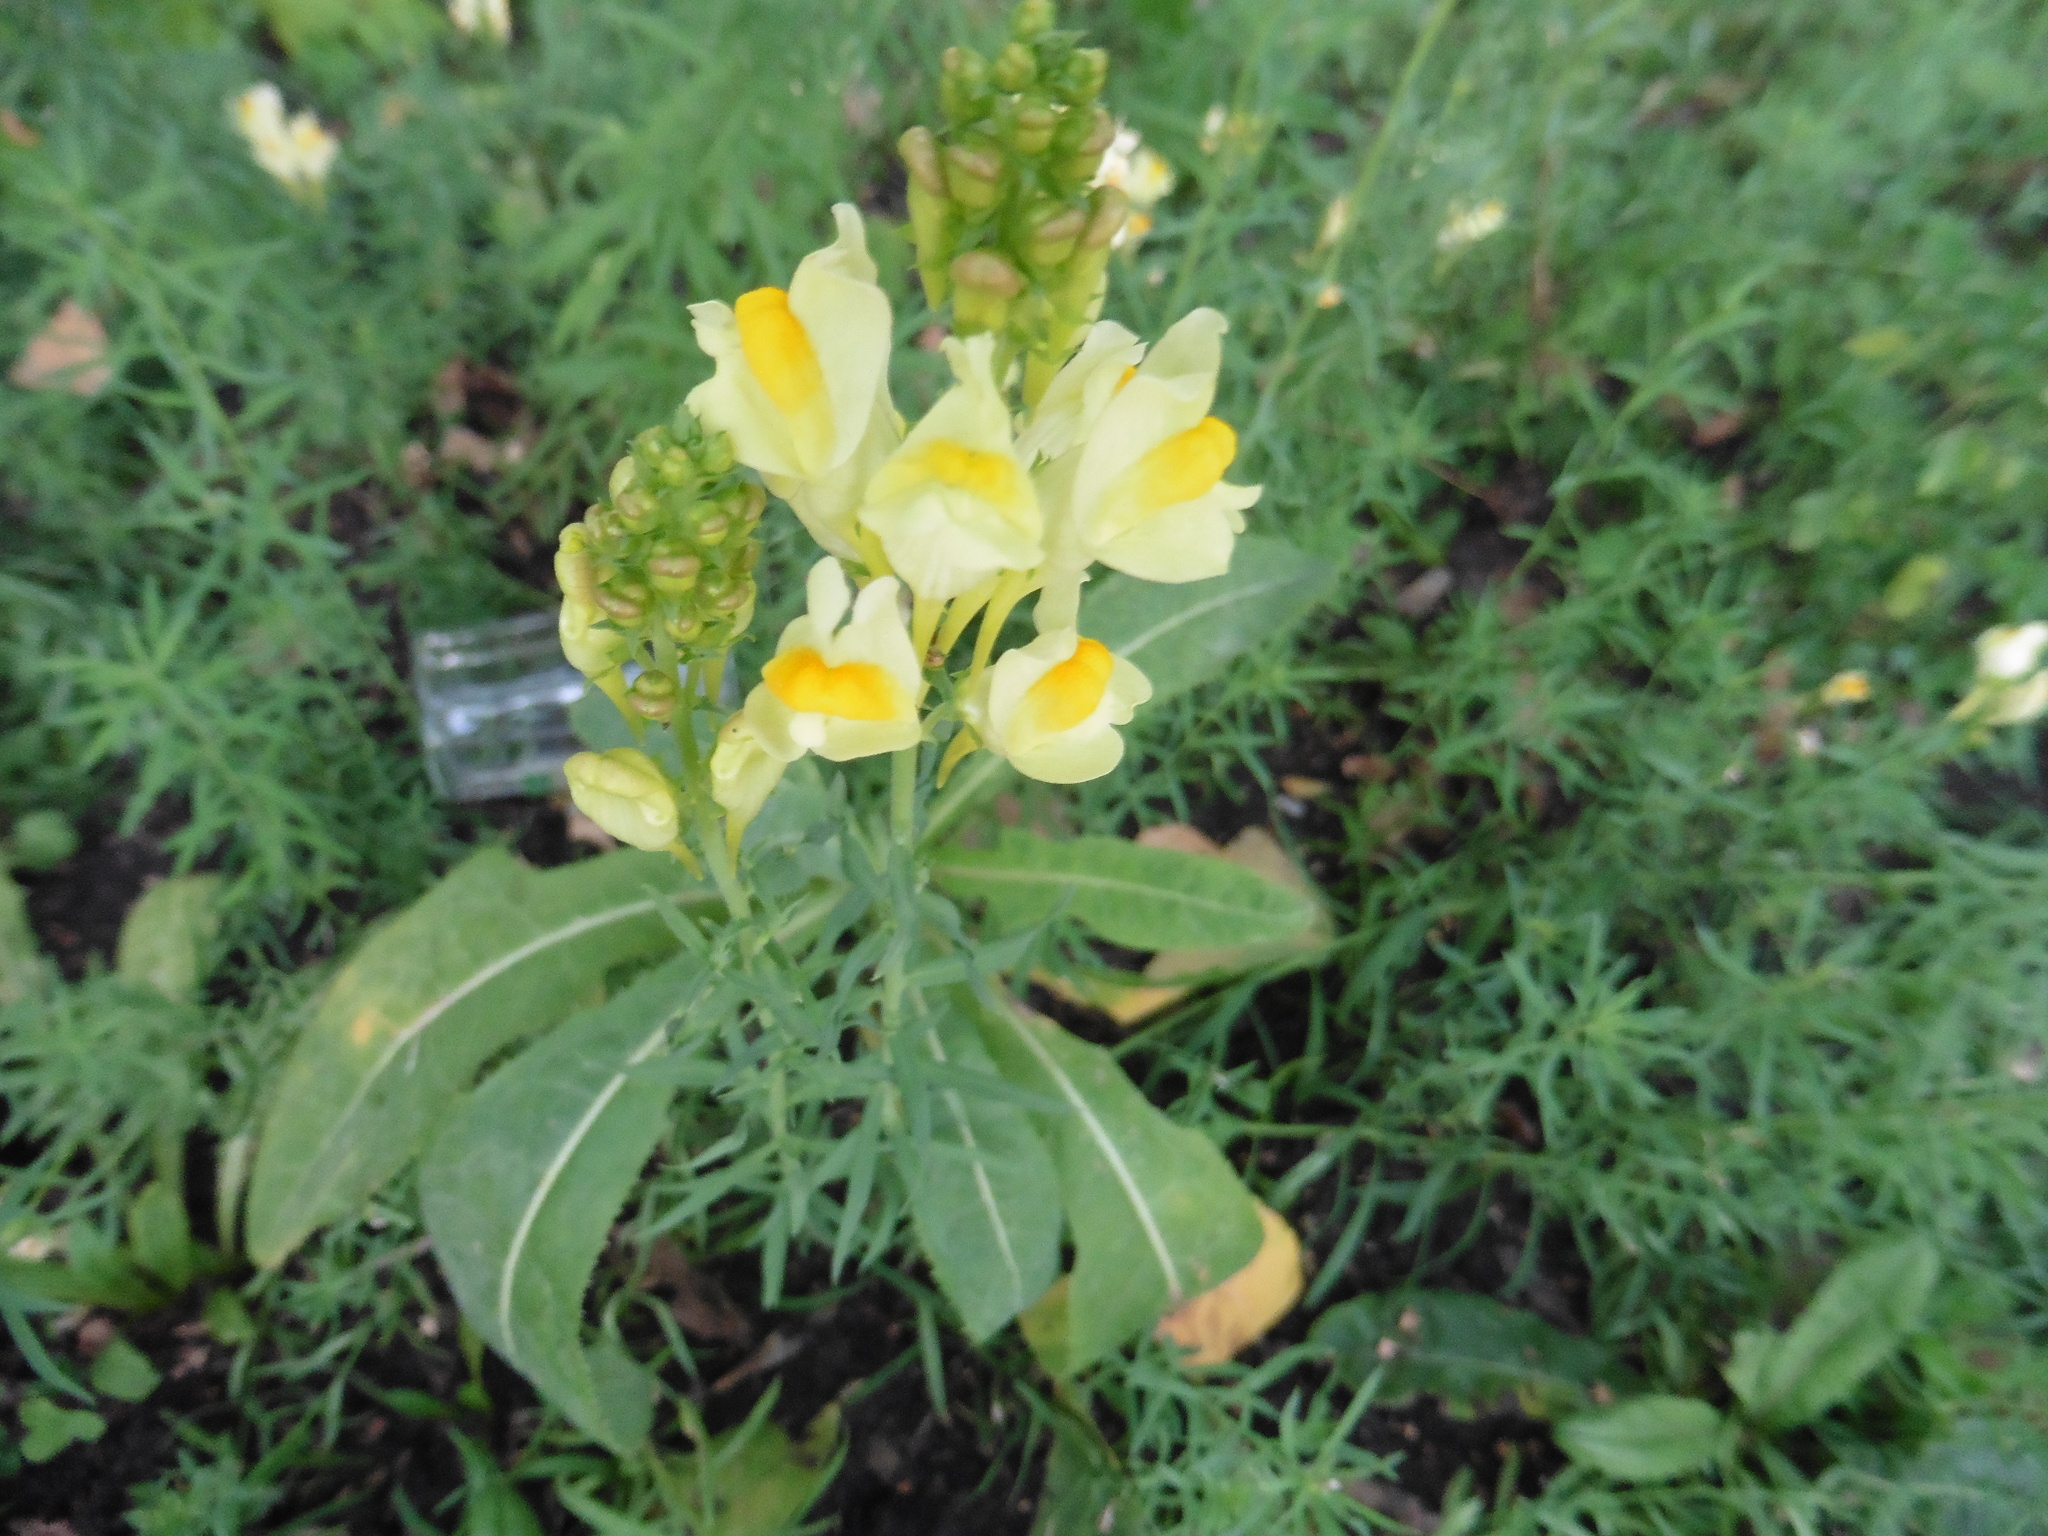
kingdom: Plantae
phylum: Tracheophyta
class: Magnoliopsida
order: Lamiales
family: Plantaginaceae
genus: Linaria
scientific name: Linaria vulgaris
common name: Butter and eggs
